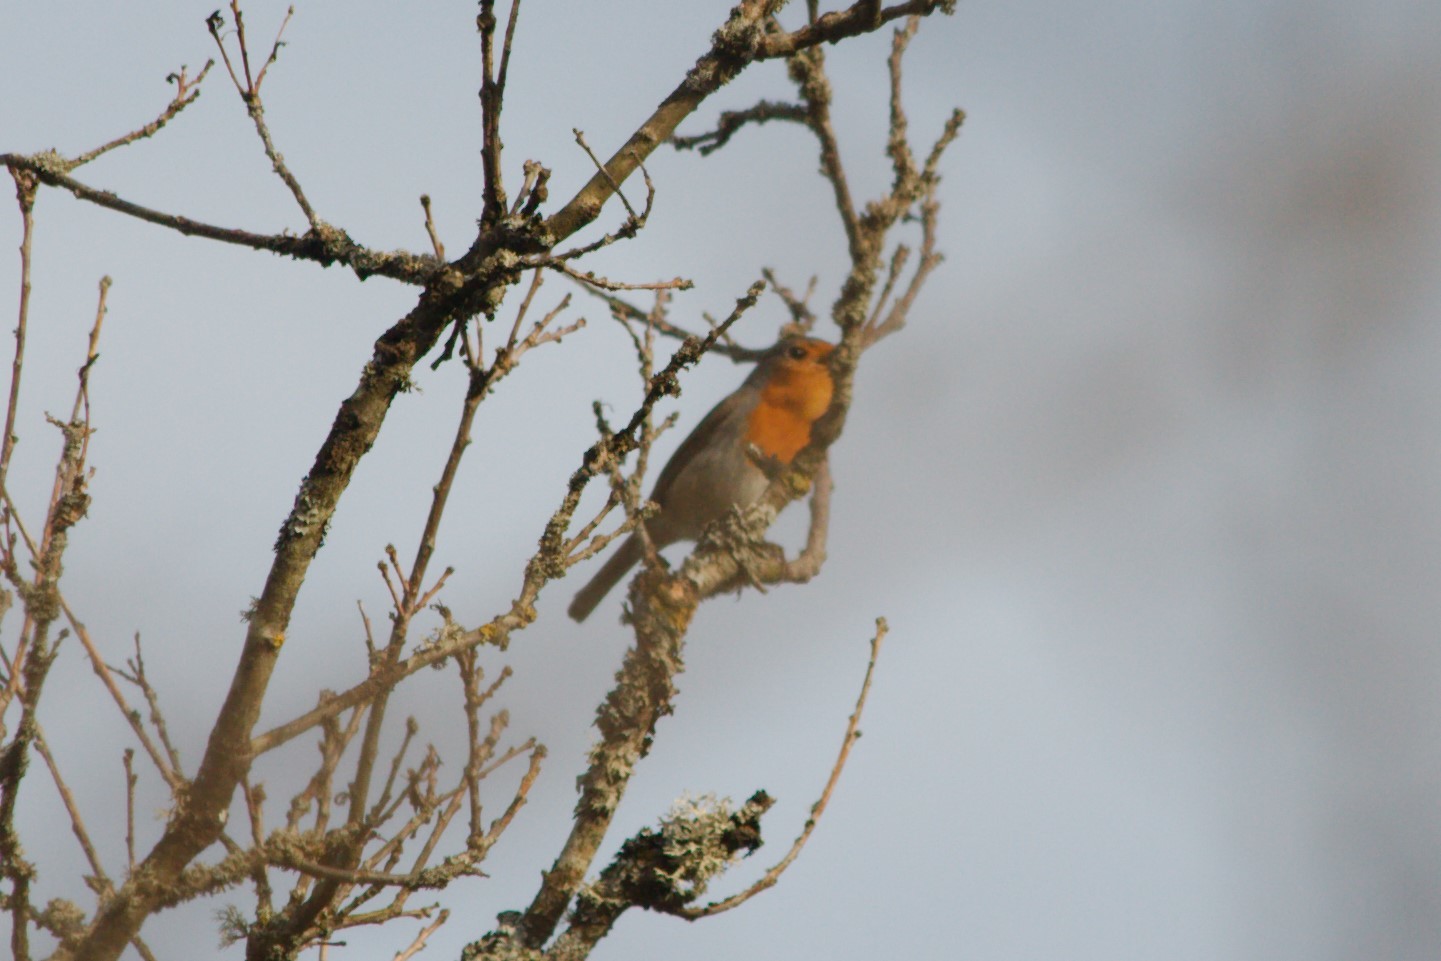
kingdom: Animalia
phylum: Chordata
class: Aves
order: Passeriformes
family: Muscicapidae
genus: Erithacus
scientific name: Erithacus rubecula
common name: European robin
